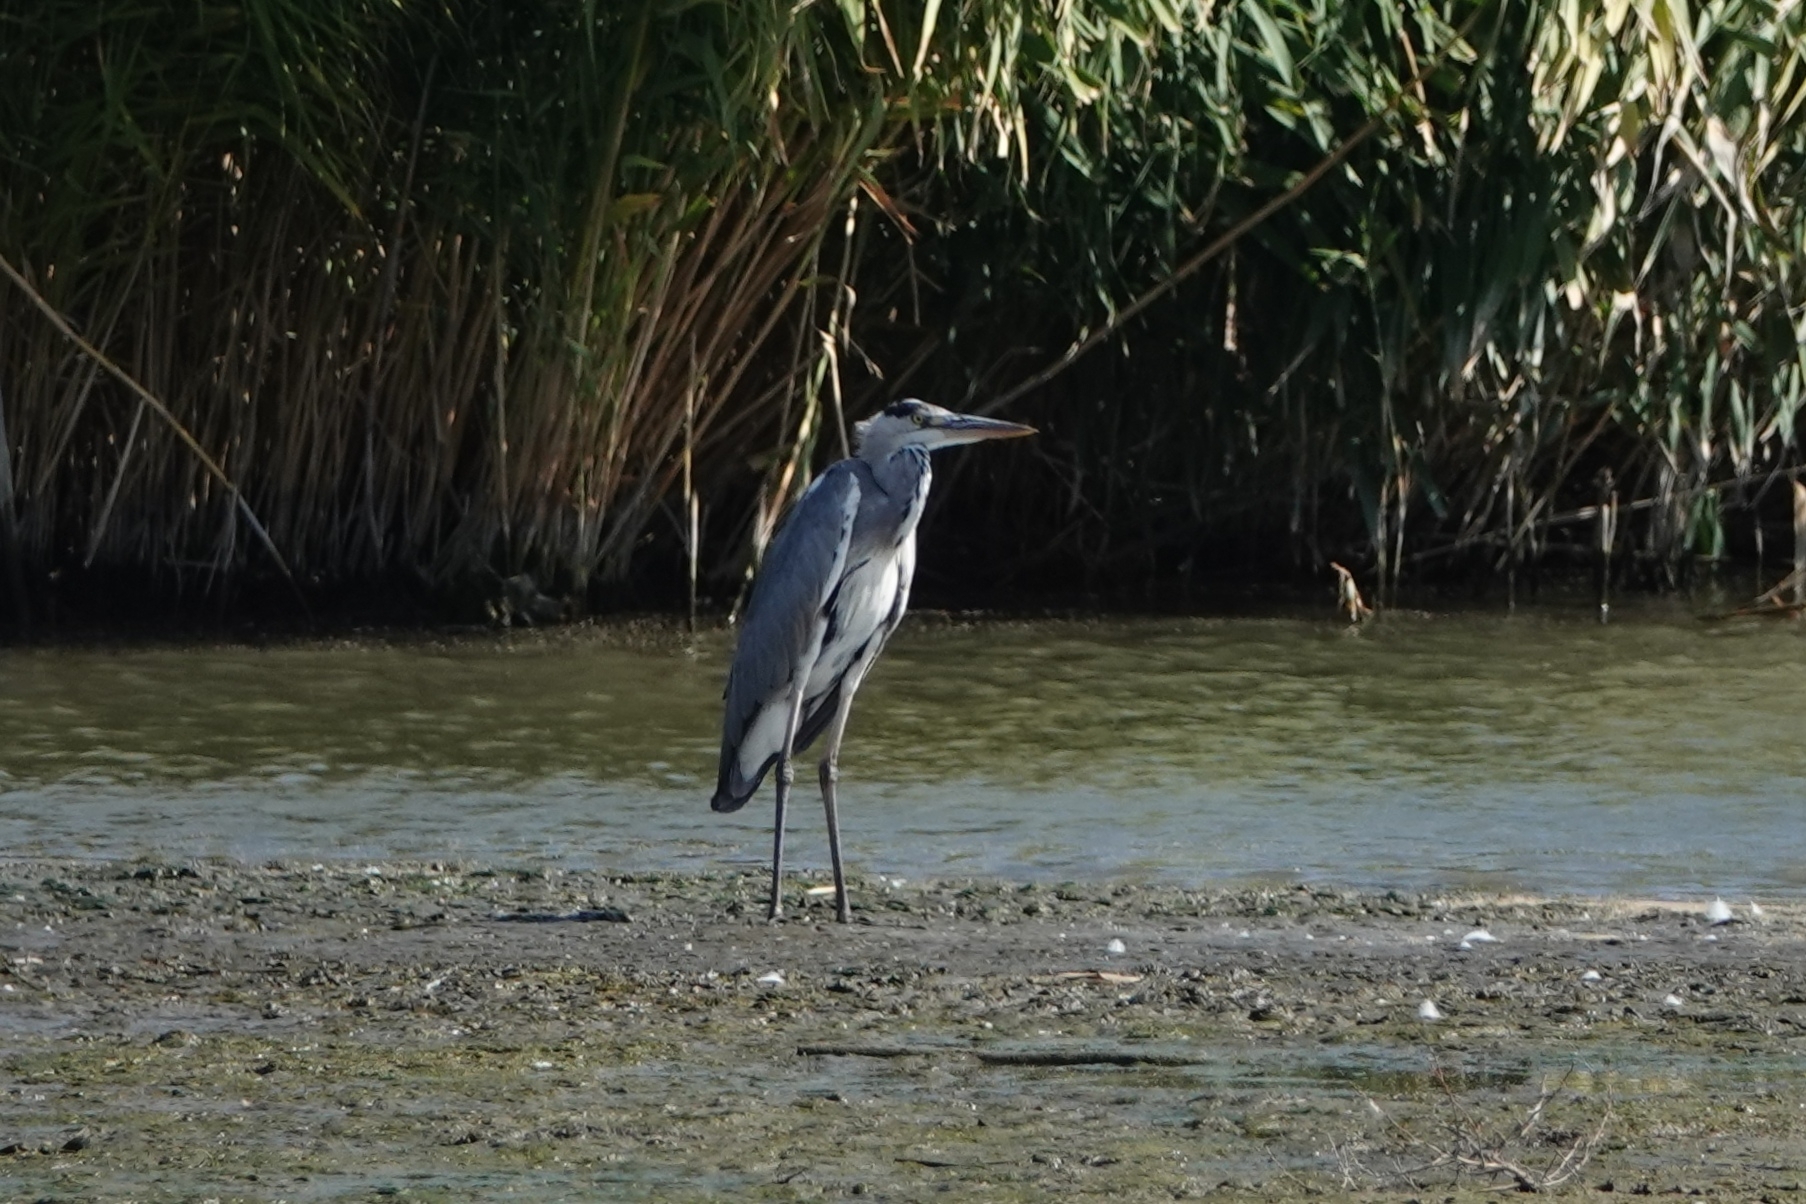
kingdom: Animalia
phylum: Chordata
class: Aves
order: Pelecaniformes
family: Ardeidae
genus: Ardea
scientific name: Ardea cinerea
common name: Grey heron
